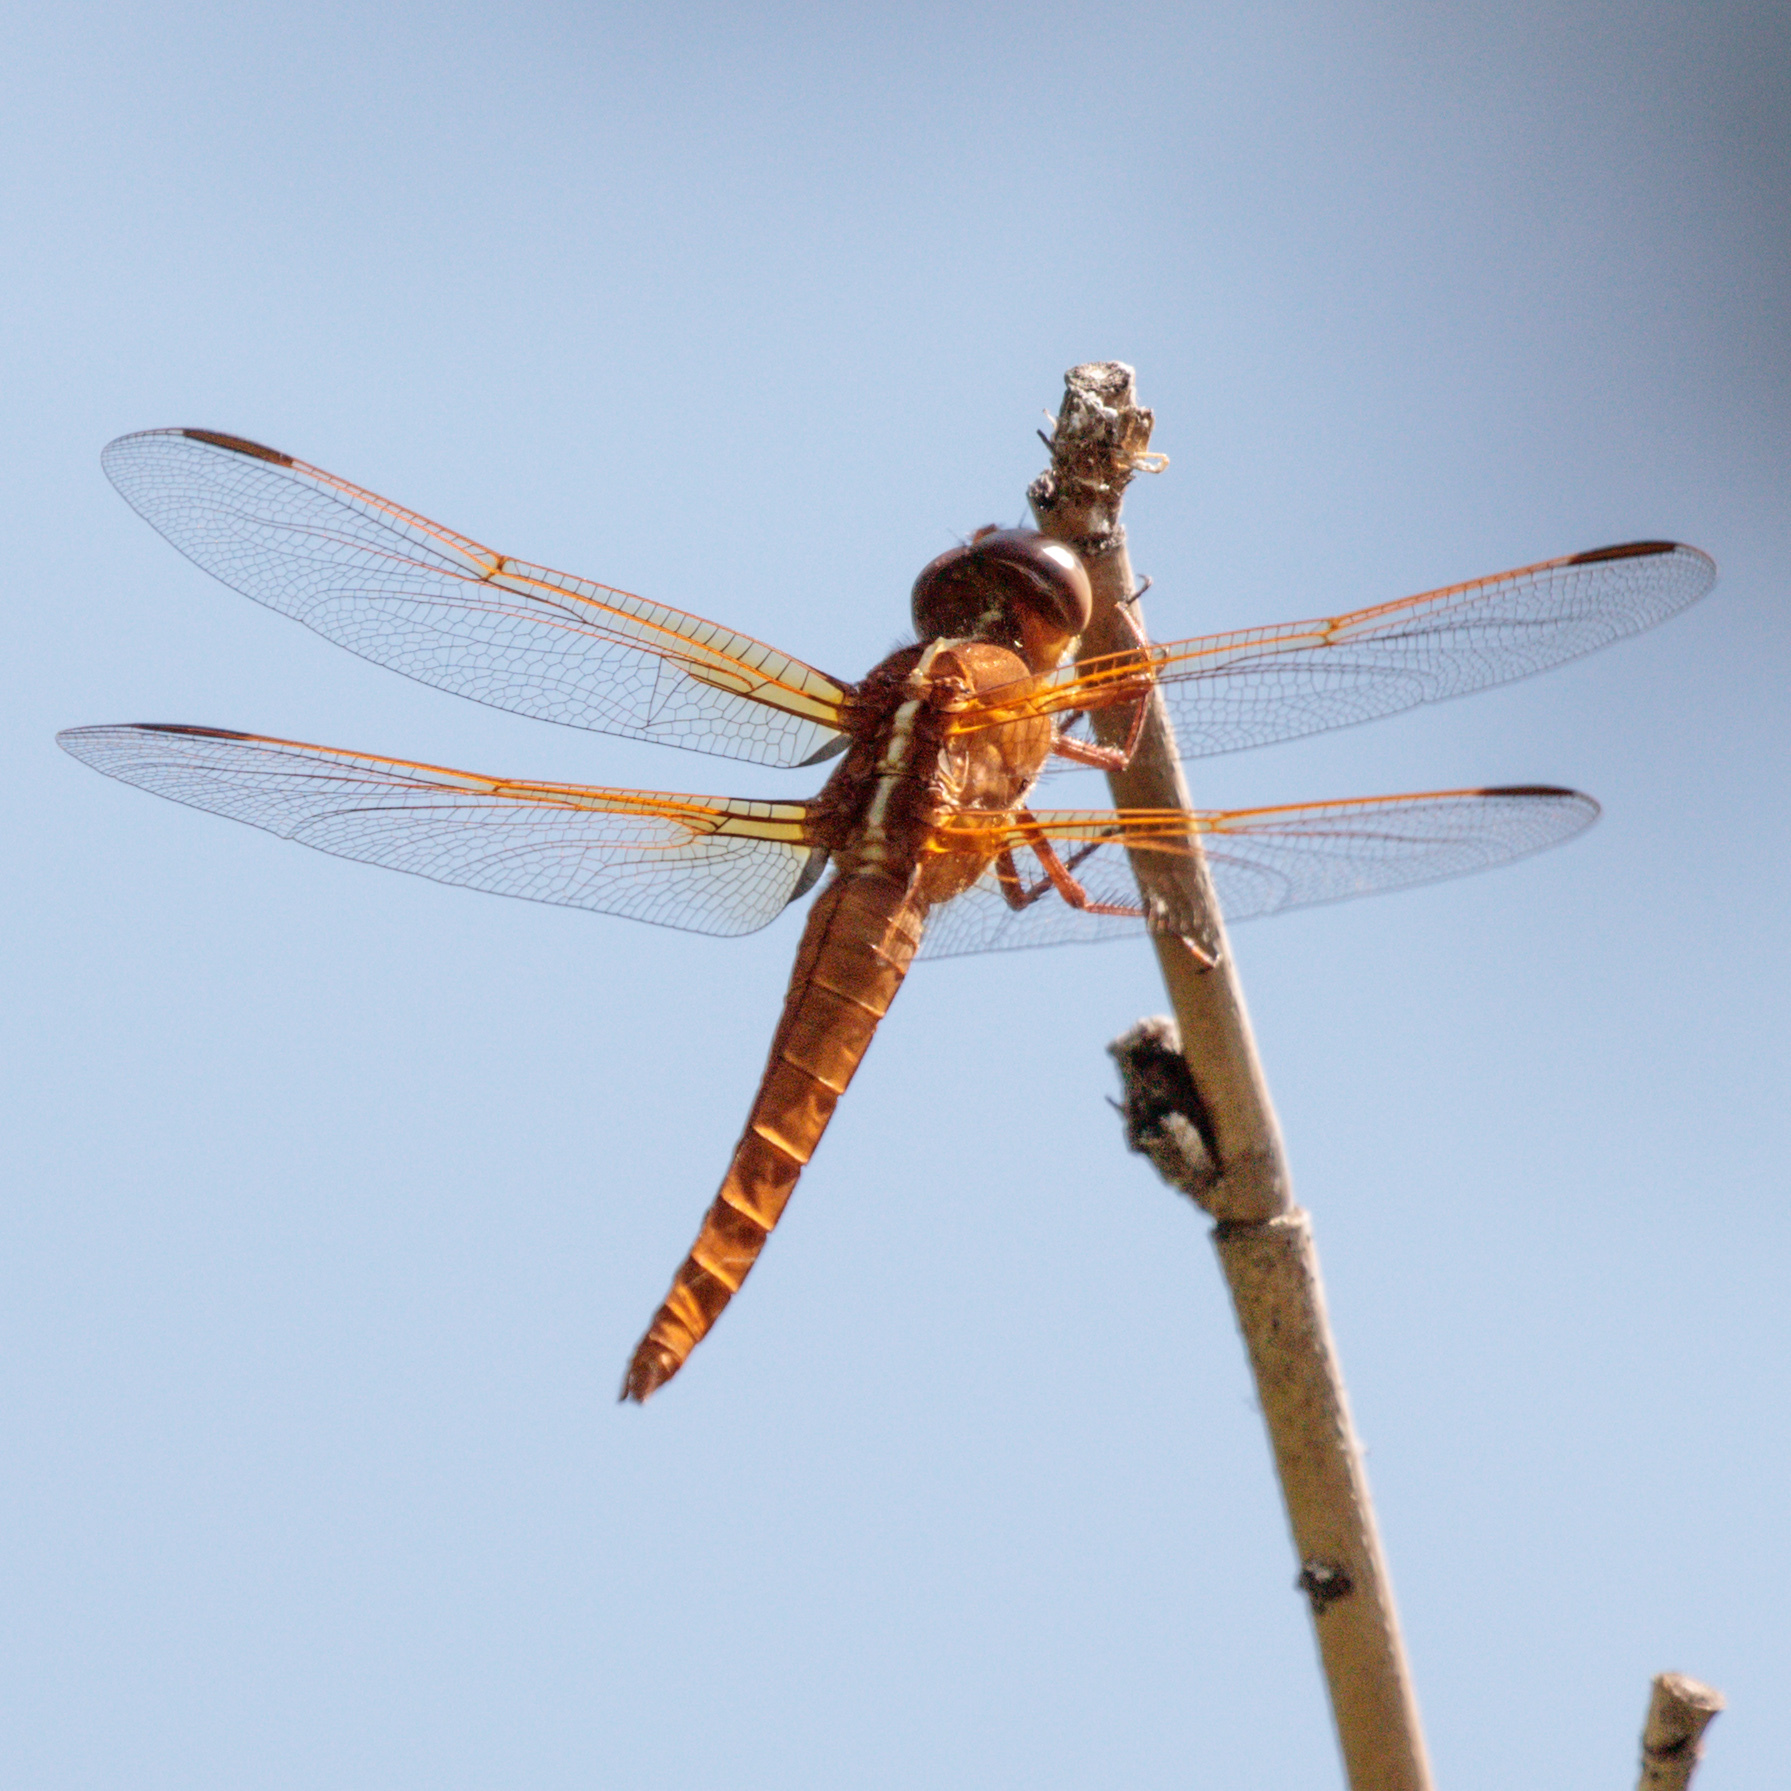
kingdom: Animalia
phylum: Arthropoda
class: Insecta
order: Odonata
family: Libellulidae
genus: Libellula
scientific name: Libellula croceipennis
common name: Neon skimmer
